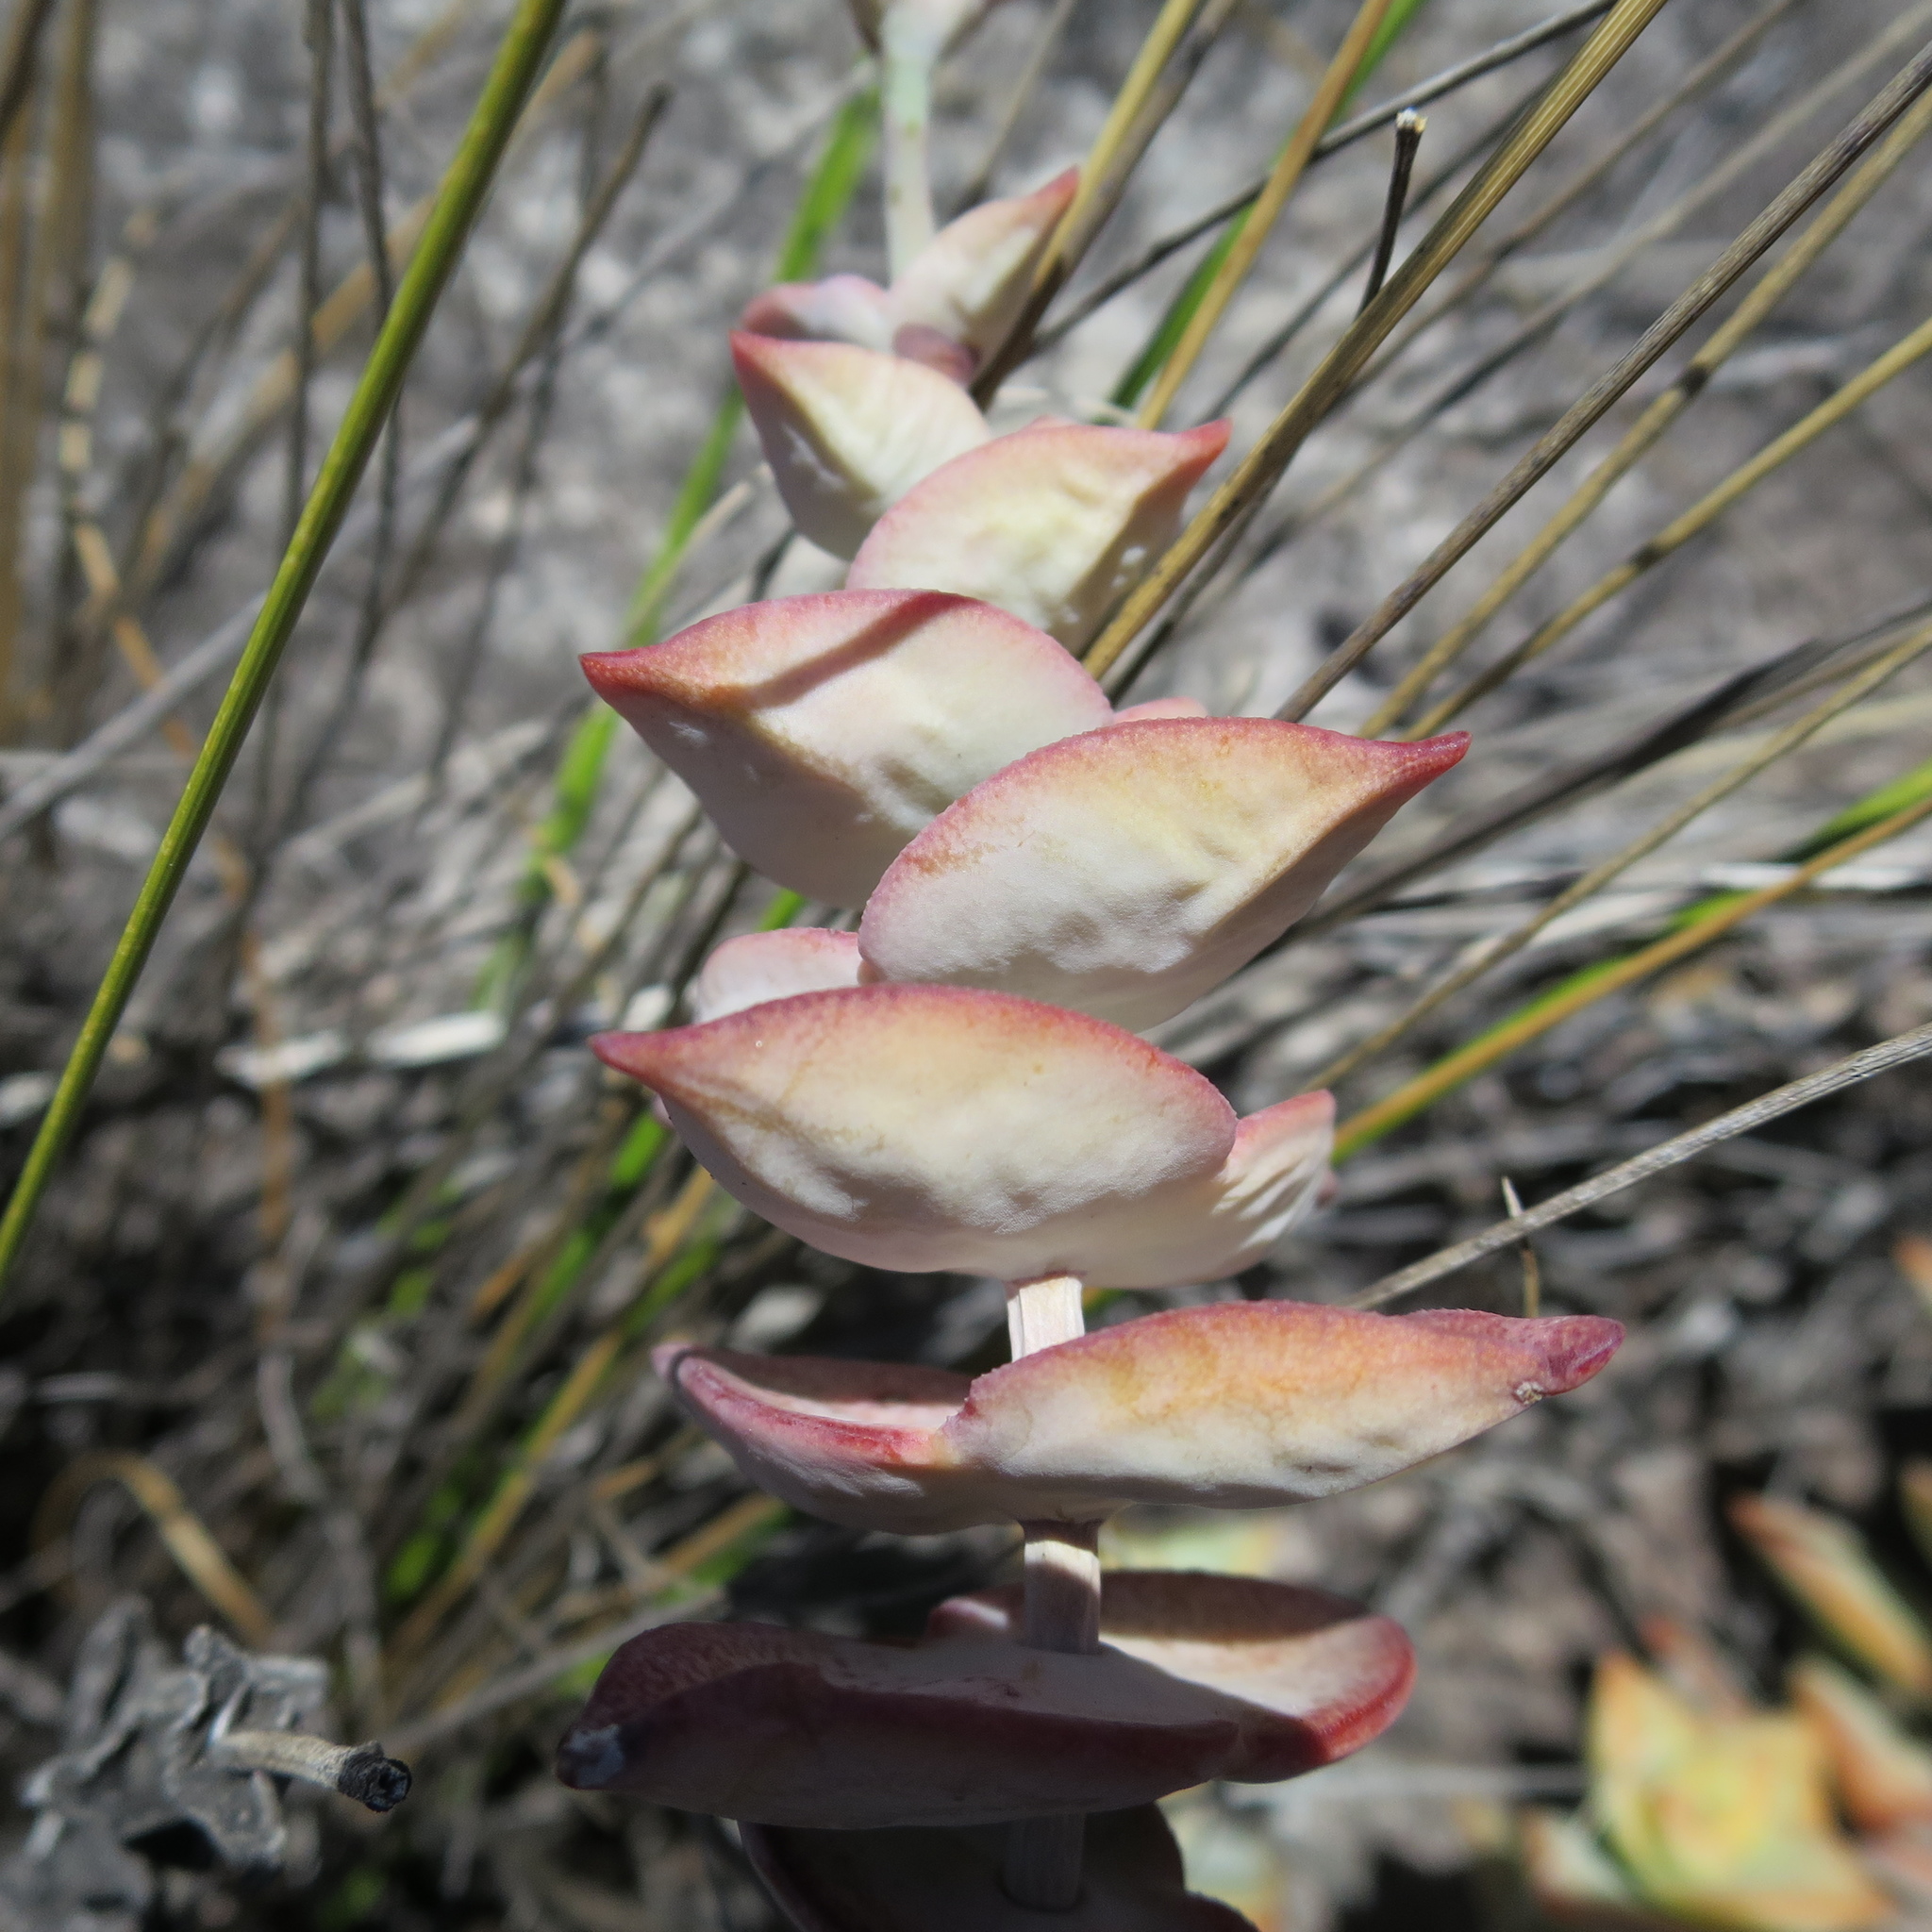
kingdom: Plantae
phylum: Tracheophyta
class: Magnoliopsida
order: Saxifragales
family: Crassulaceae
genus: Crassula
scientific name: Crassula perforata
